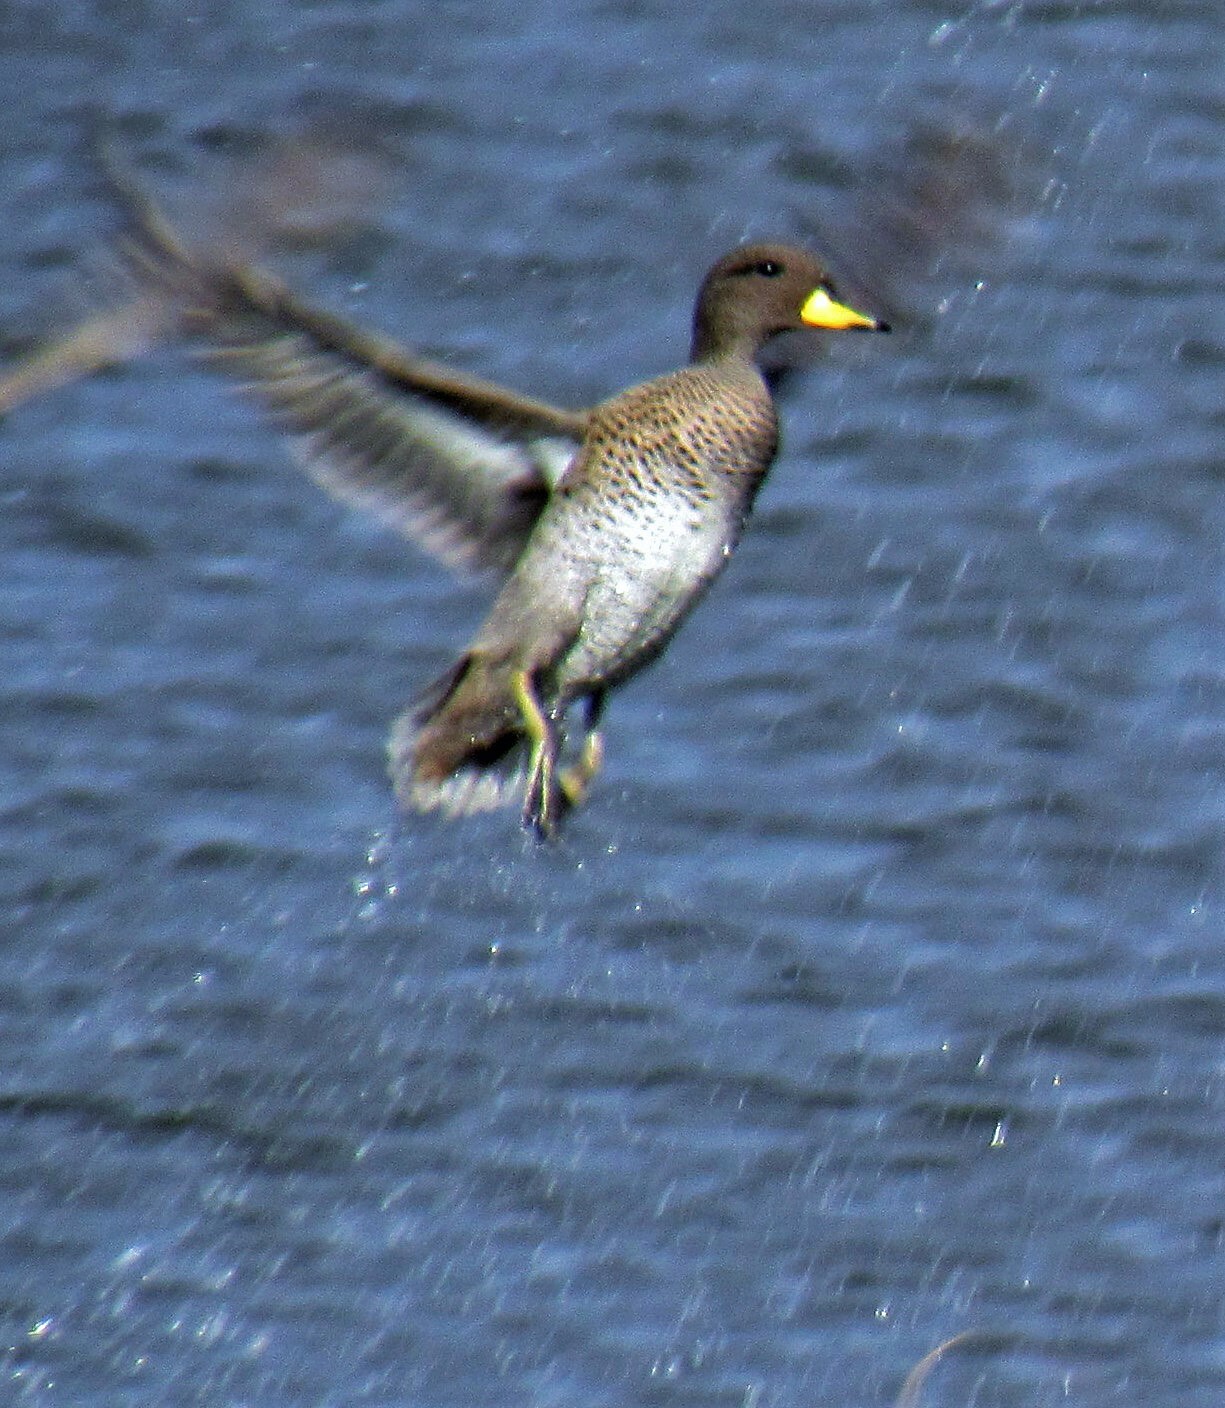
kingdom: Animalia
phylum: Chordata
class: Aves
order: Anseriformes
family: Anatidae
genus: Anas
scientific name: Anas flavirostris
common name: Yellow-billed teal
